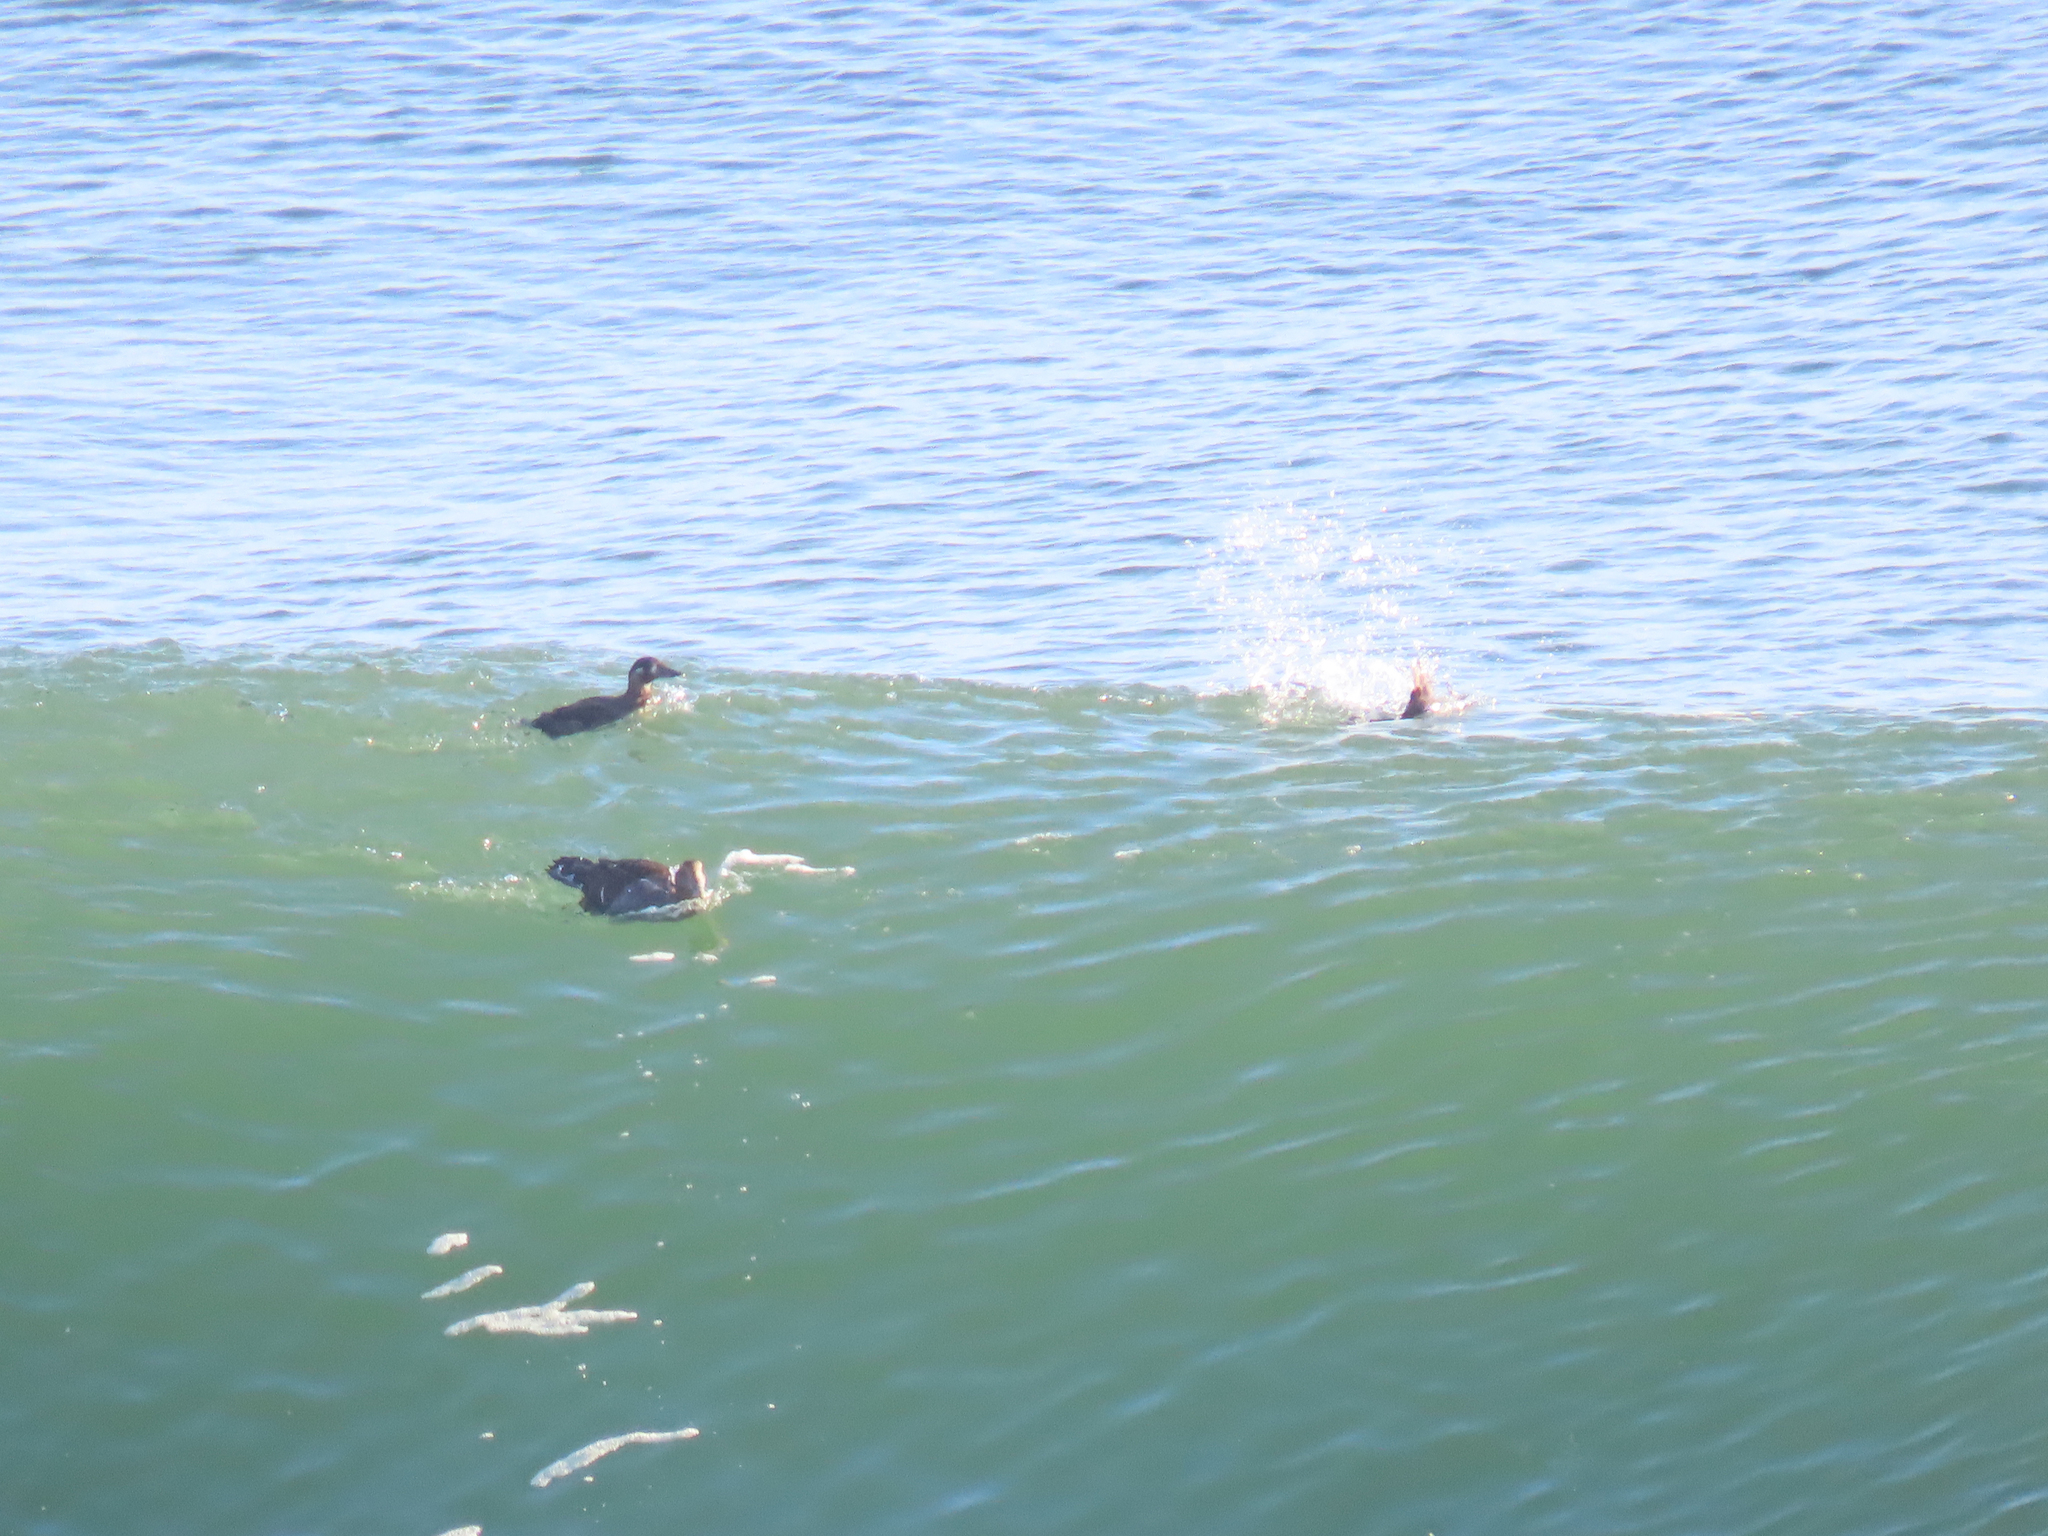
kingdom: Animalia
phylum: Chordata
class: Aves
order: Anseriformes
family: Anatidae
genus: Melanitta
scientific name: Melanitta perspicillata
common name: Surf scoter
